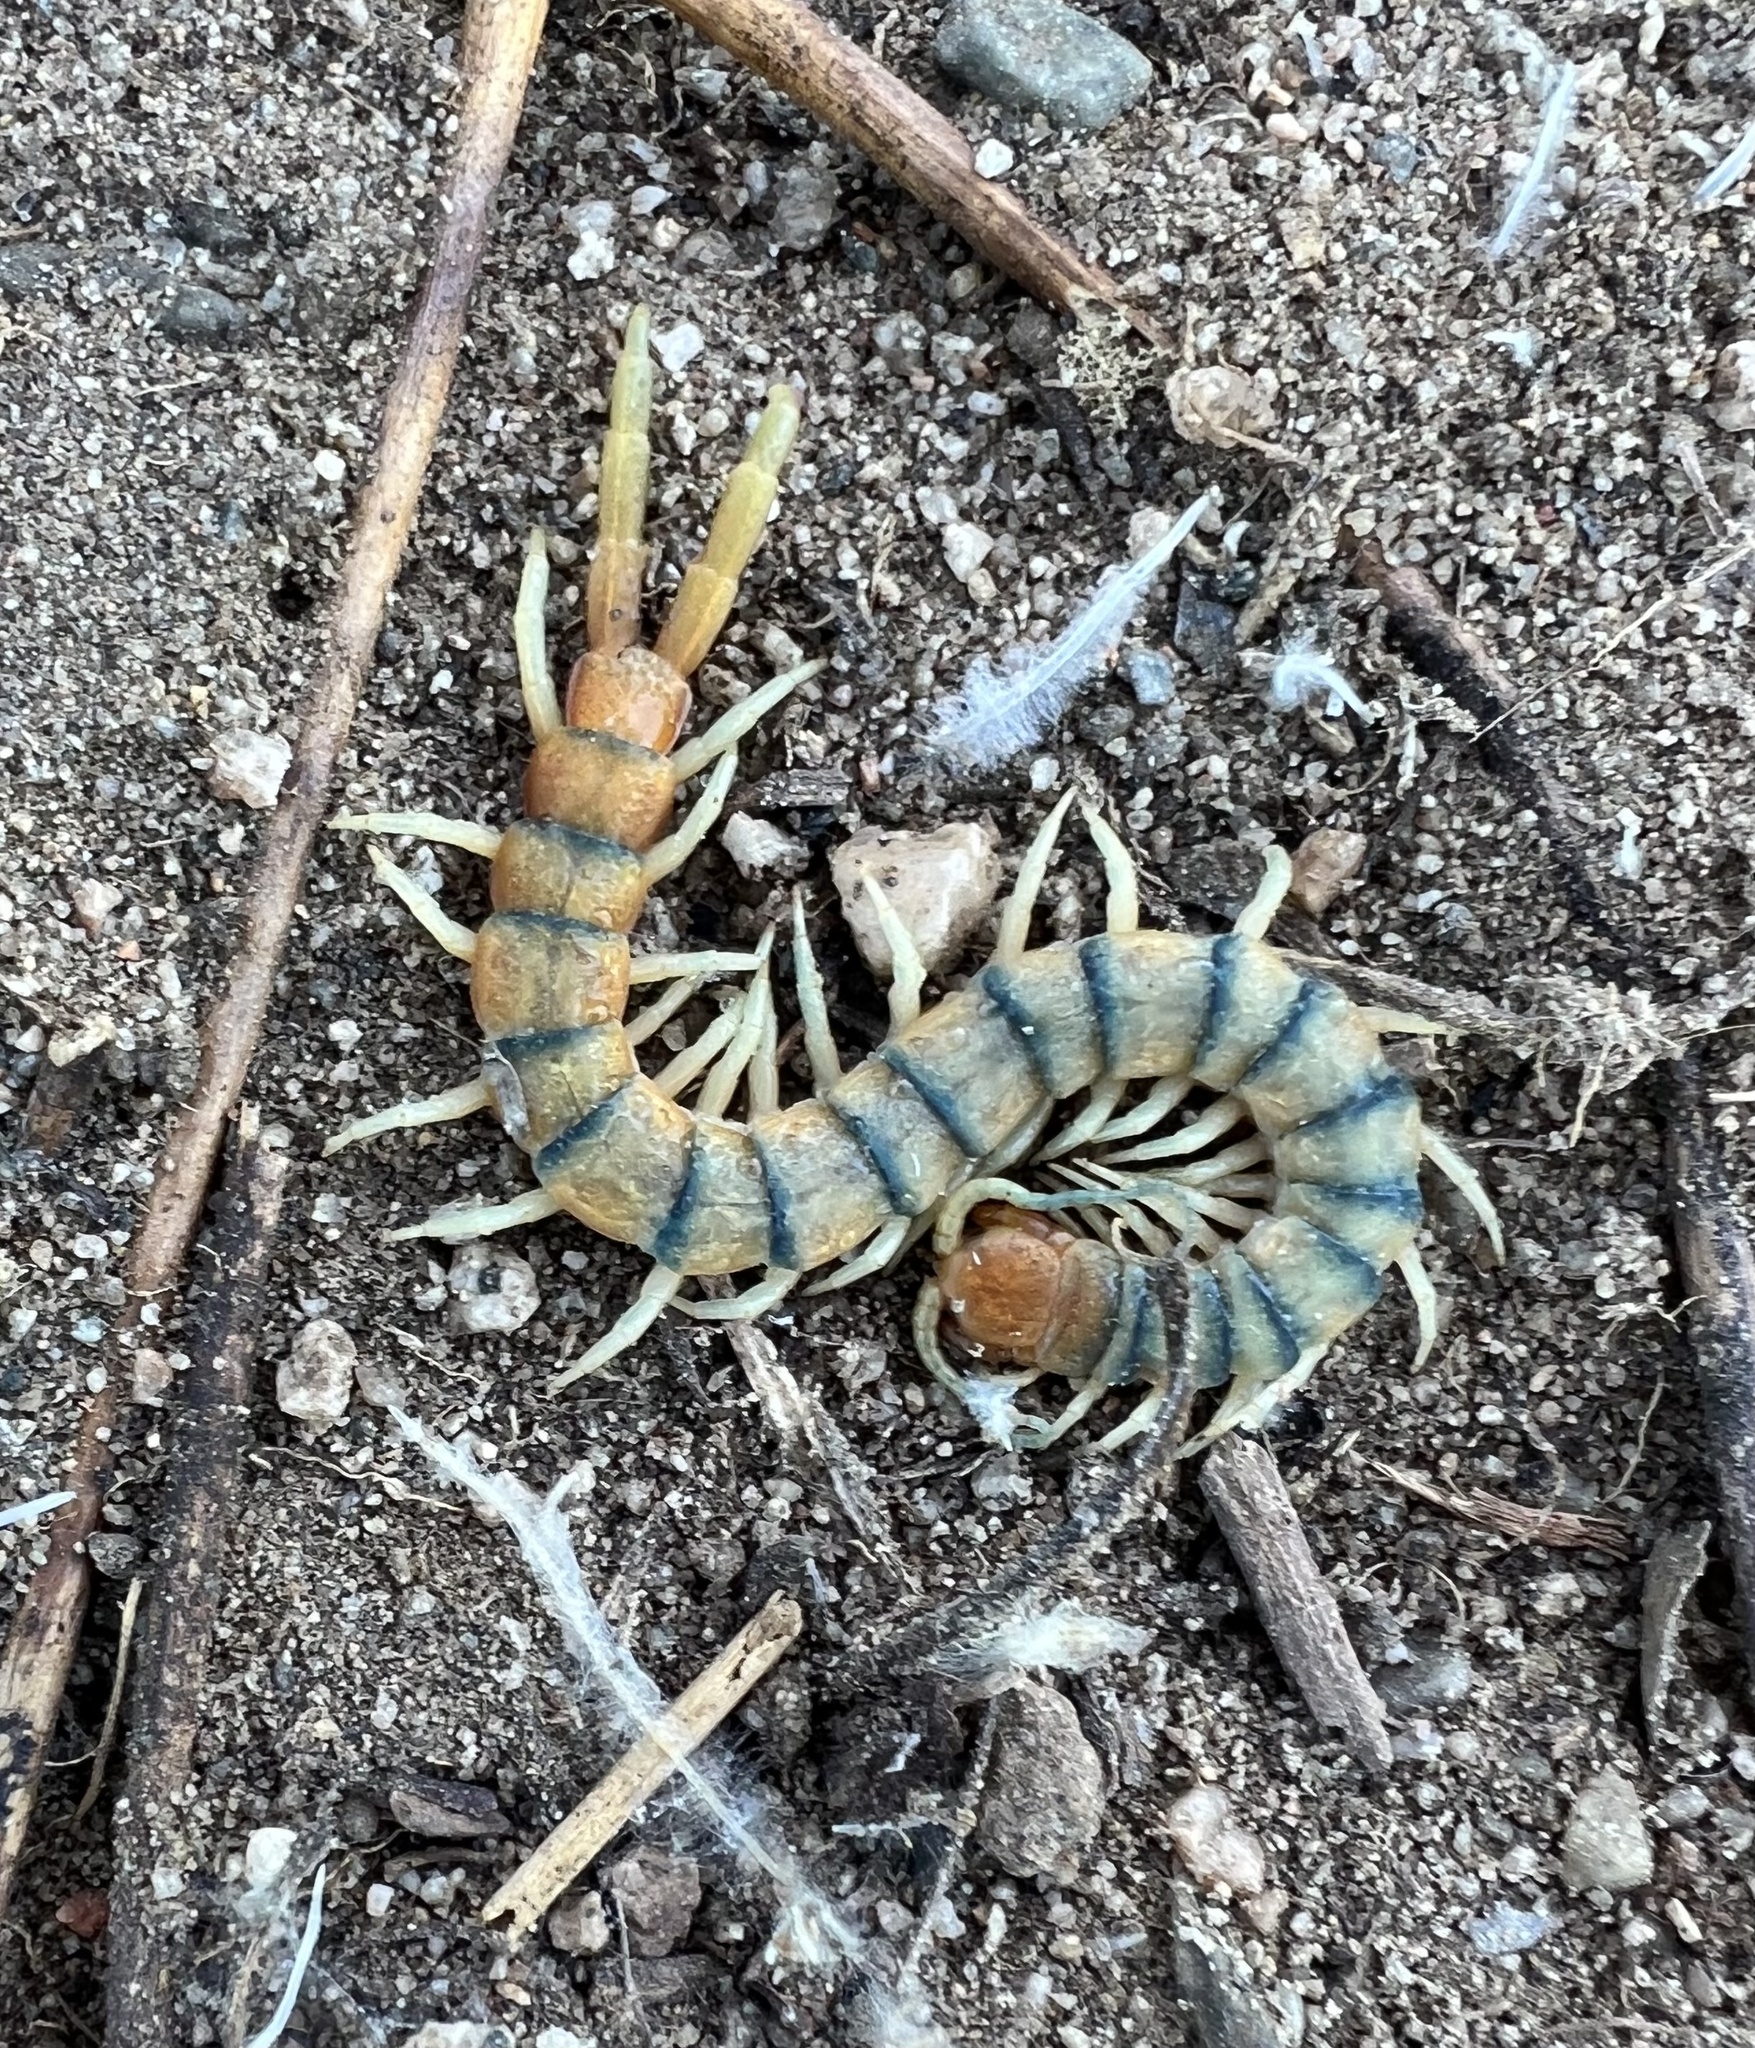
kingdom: Animalia
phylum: Arthropoda
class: Chilopoda
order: Scolopendromorpha
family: Scolopendridae
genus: Scolopendra
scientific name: Scolopendra polymorpha
